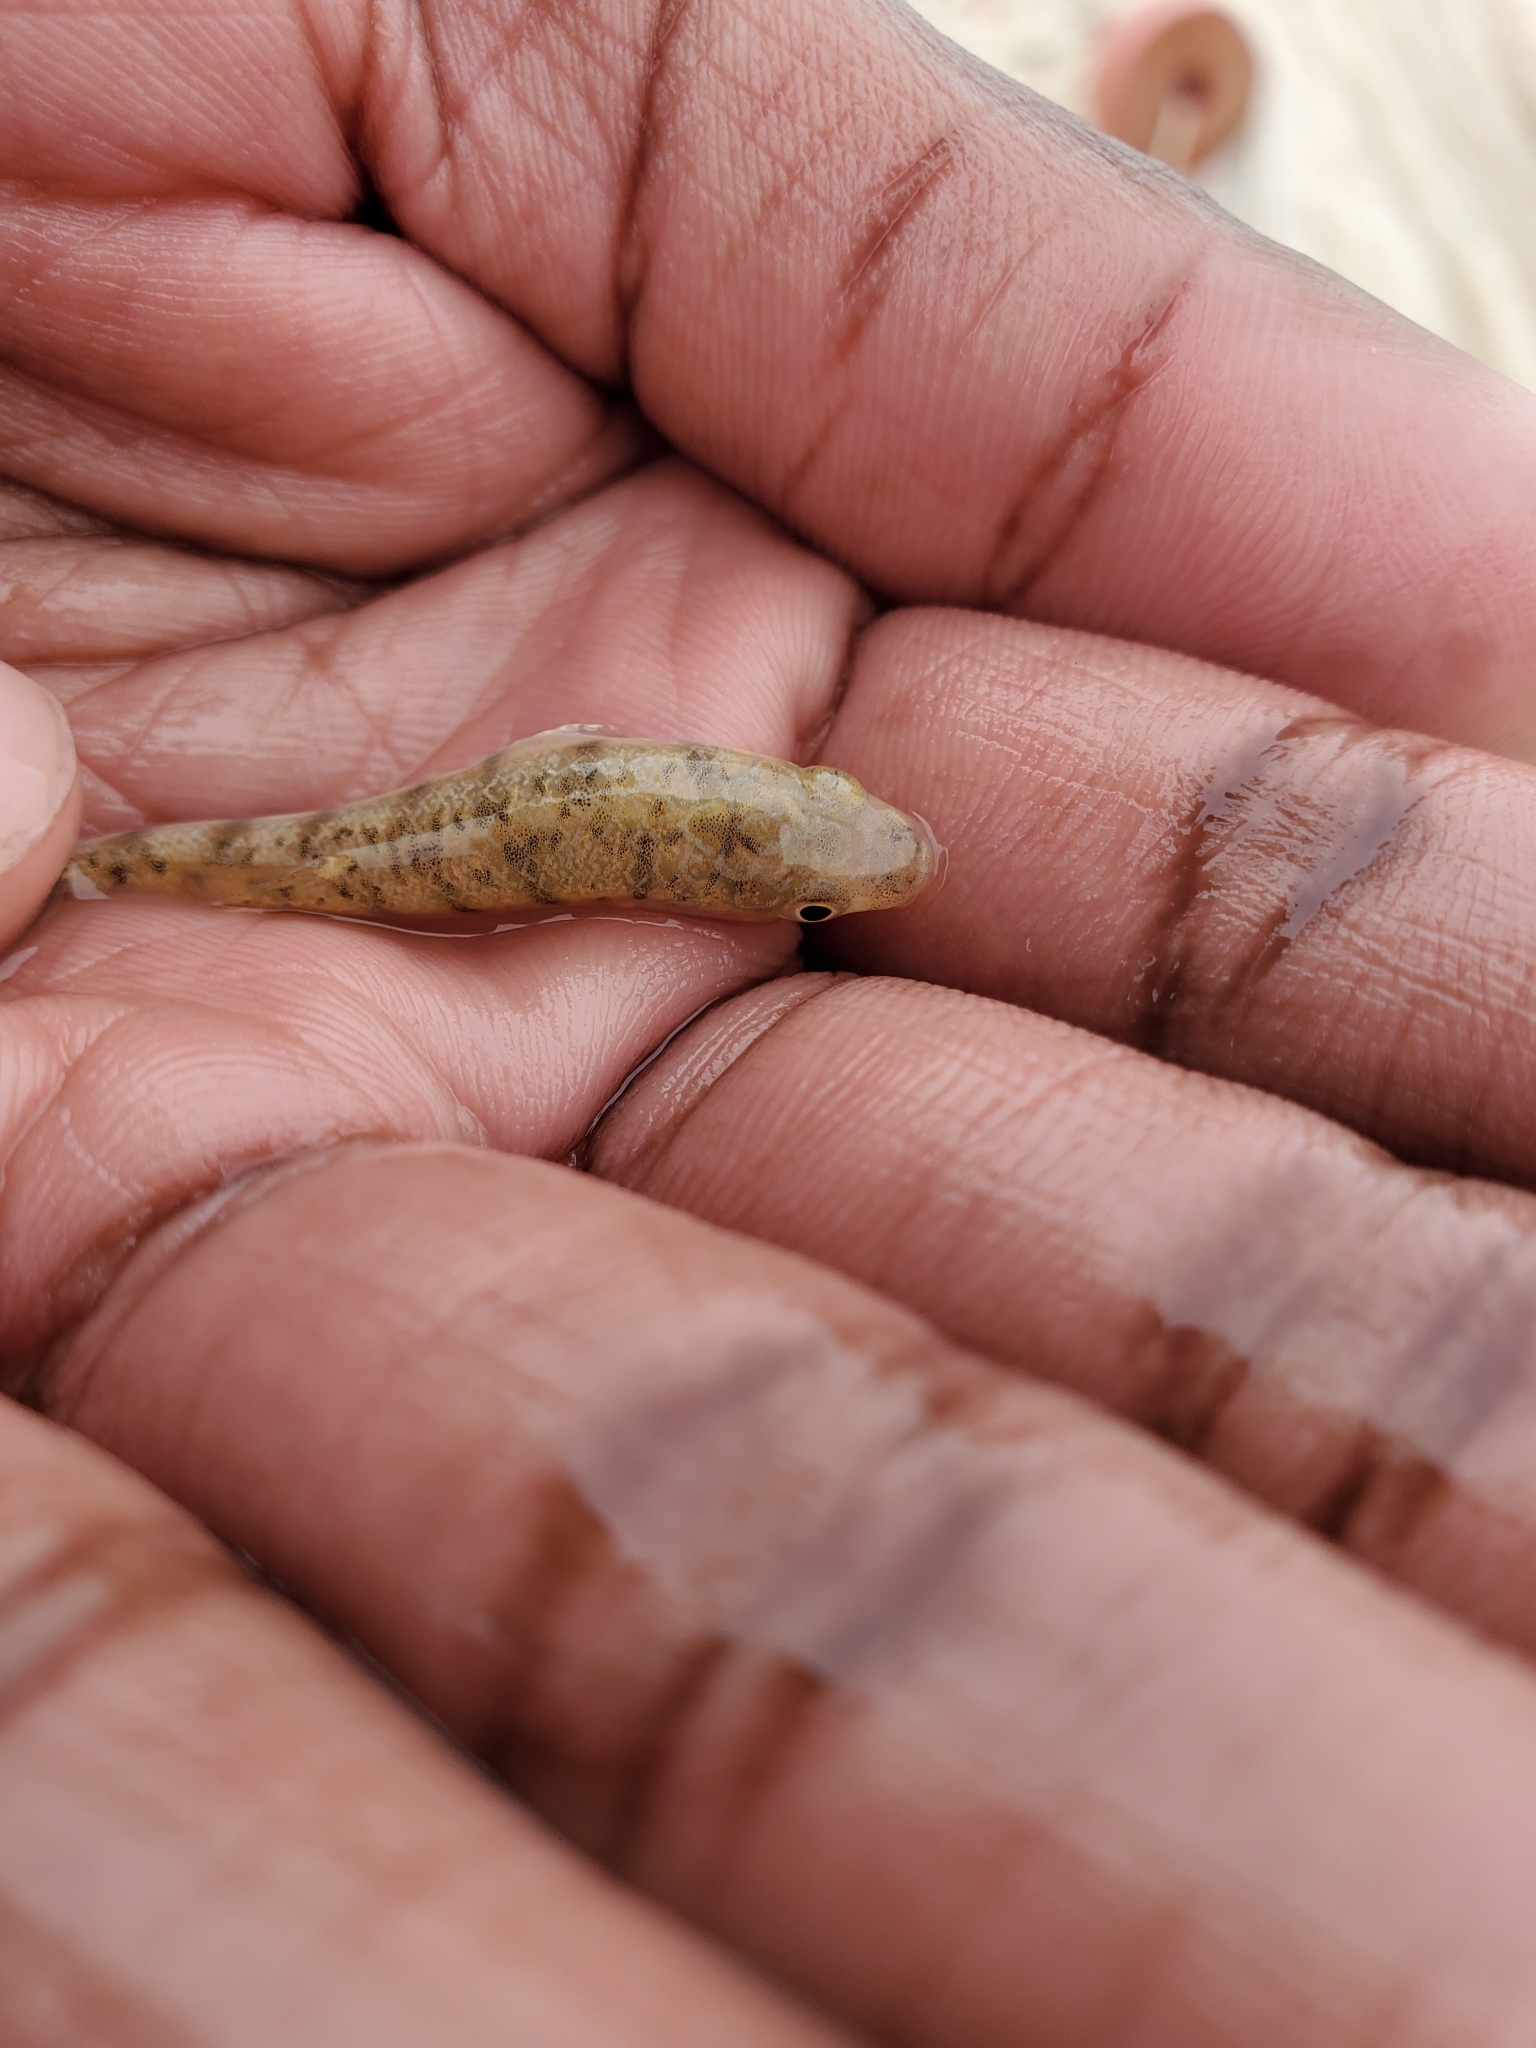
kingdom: Animalia
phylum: Chordata
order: Cyprinodontiformes
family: Fundulidae
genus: Fundulus
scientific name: Fundulus majalis
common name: Striped killifish
